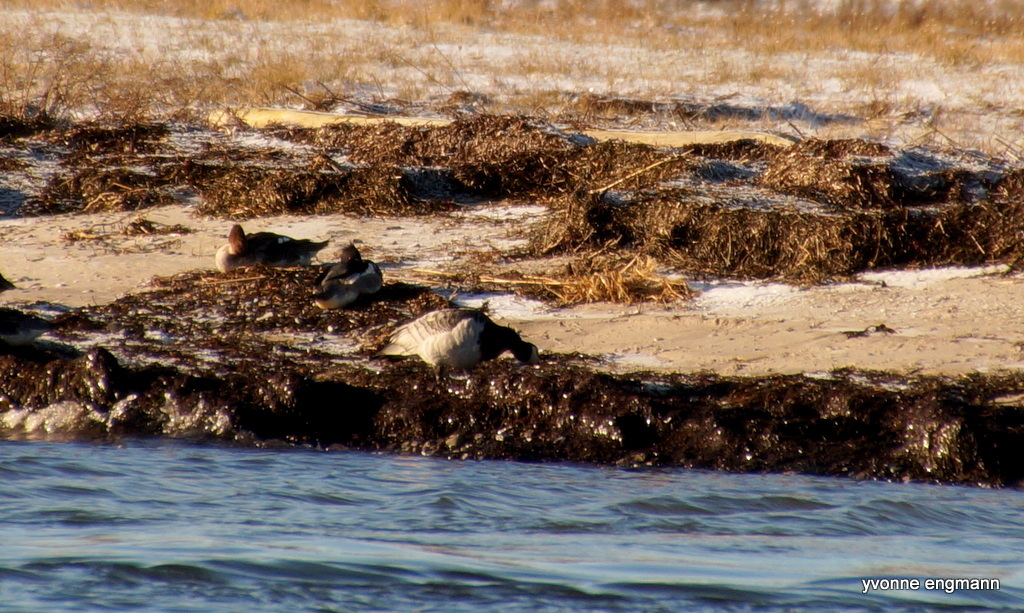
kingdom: Animalia
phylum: Chordata
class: Aves
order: Anseriformes
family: Anatidae
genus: Branta
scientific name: Branta leucopsis
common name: Barnacle goose
